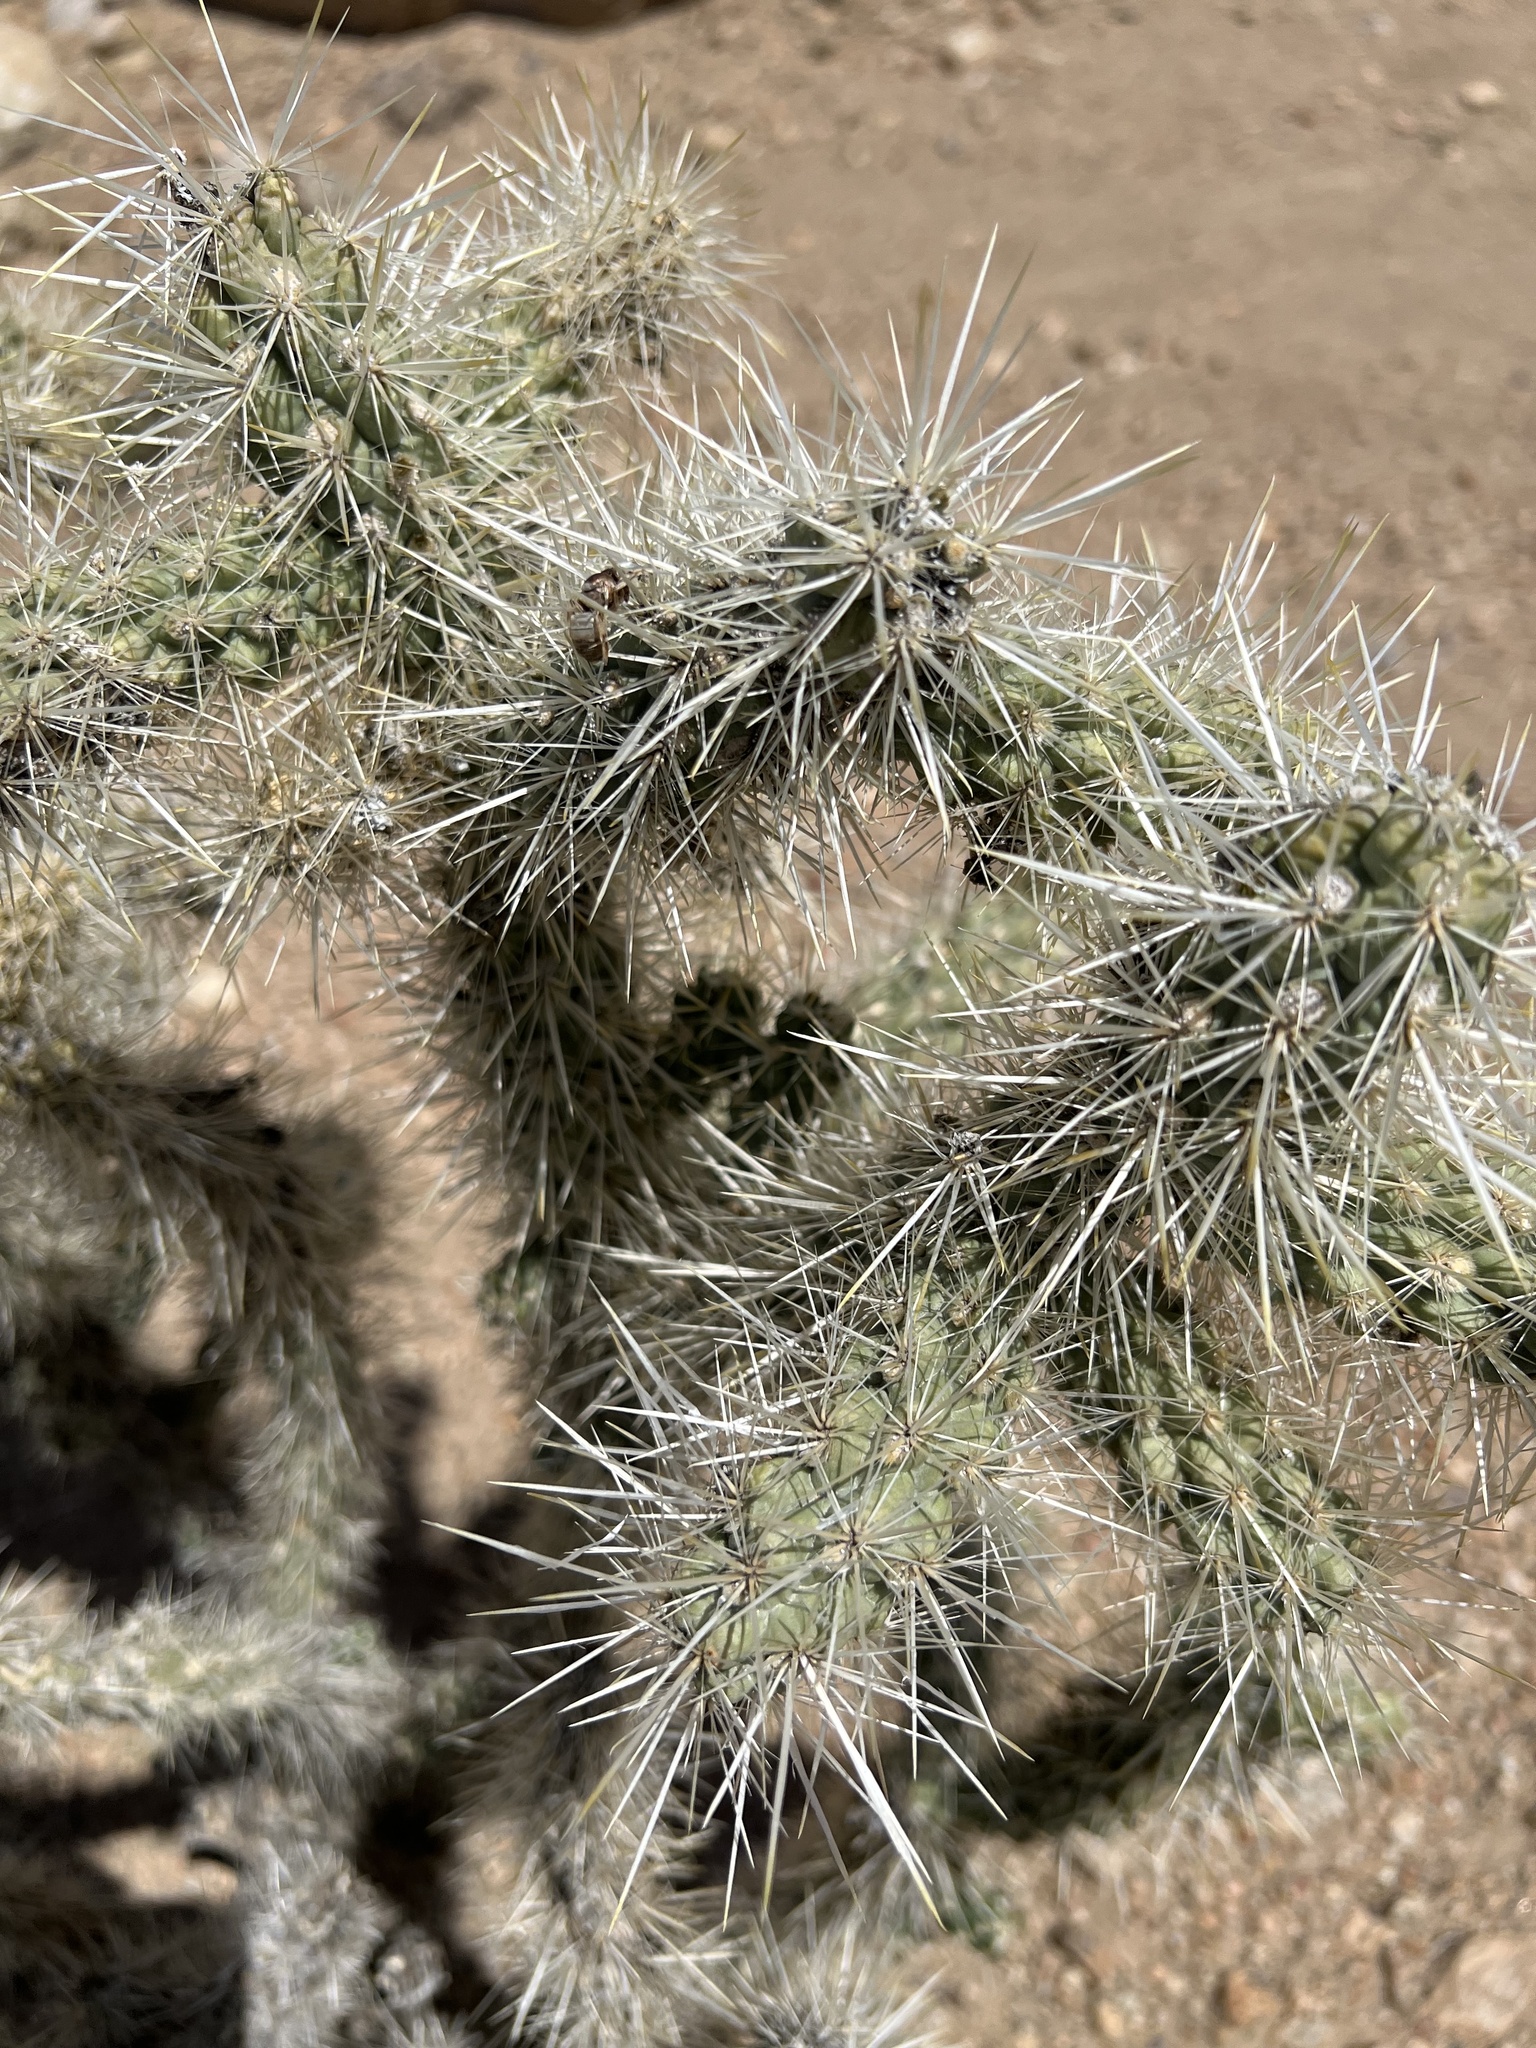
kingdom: Plantae
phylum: Tracheophyta
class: Magnoliopsida
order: Caryophyllales
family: Cactaceae
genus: Cylindropuntia
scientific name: Cylindropuntia echinocarpa
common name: Ground cholla
